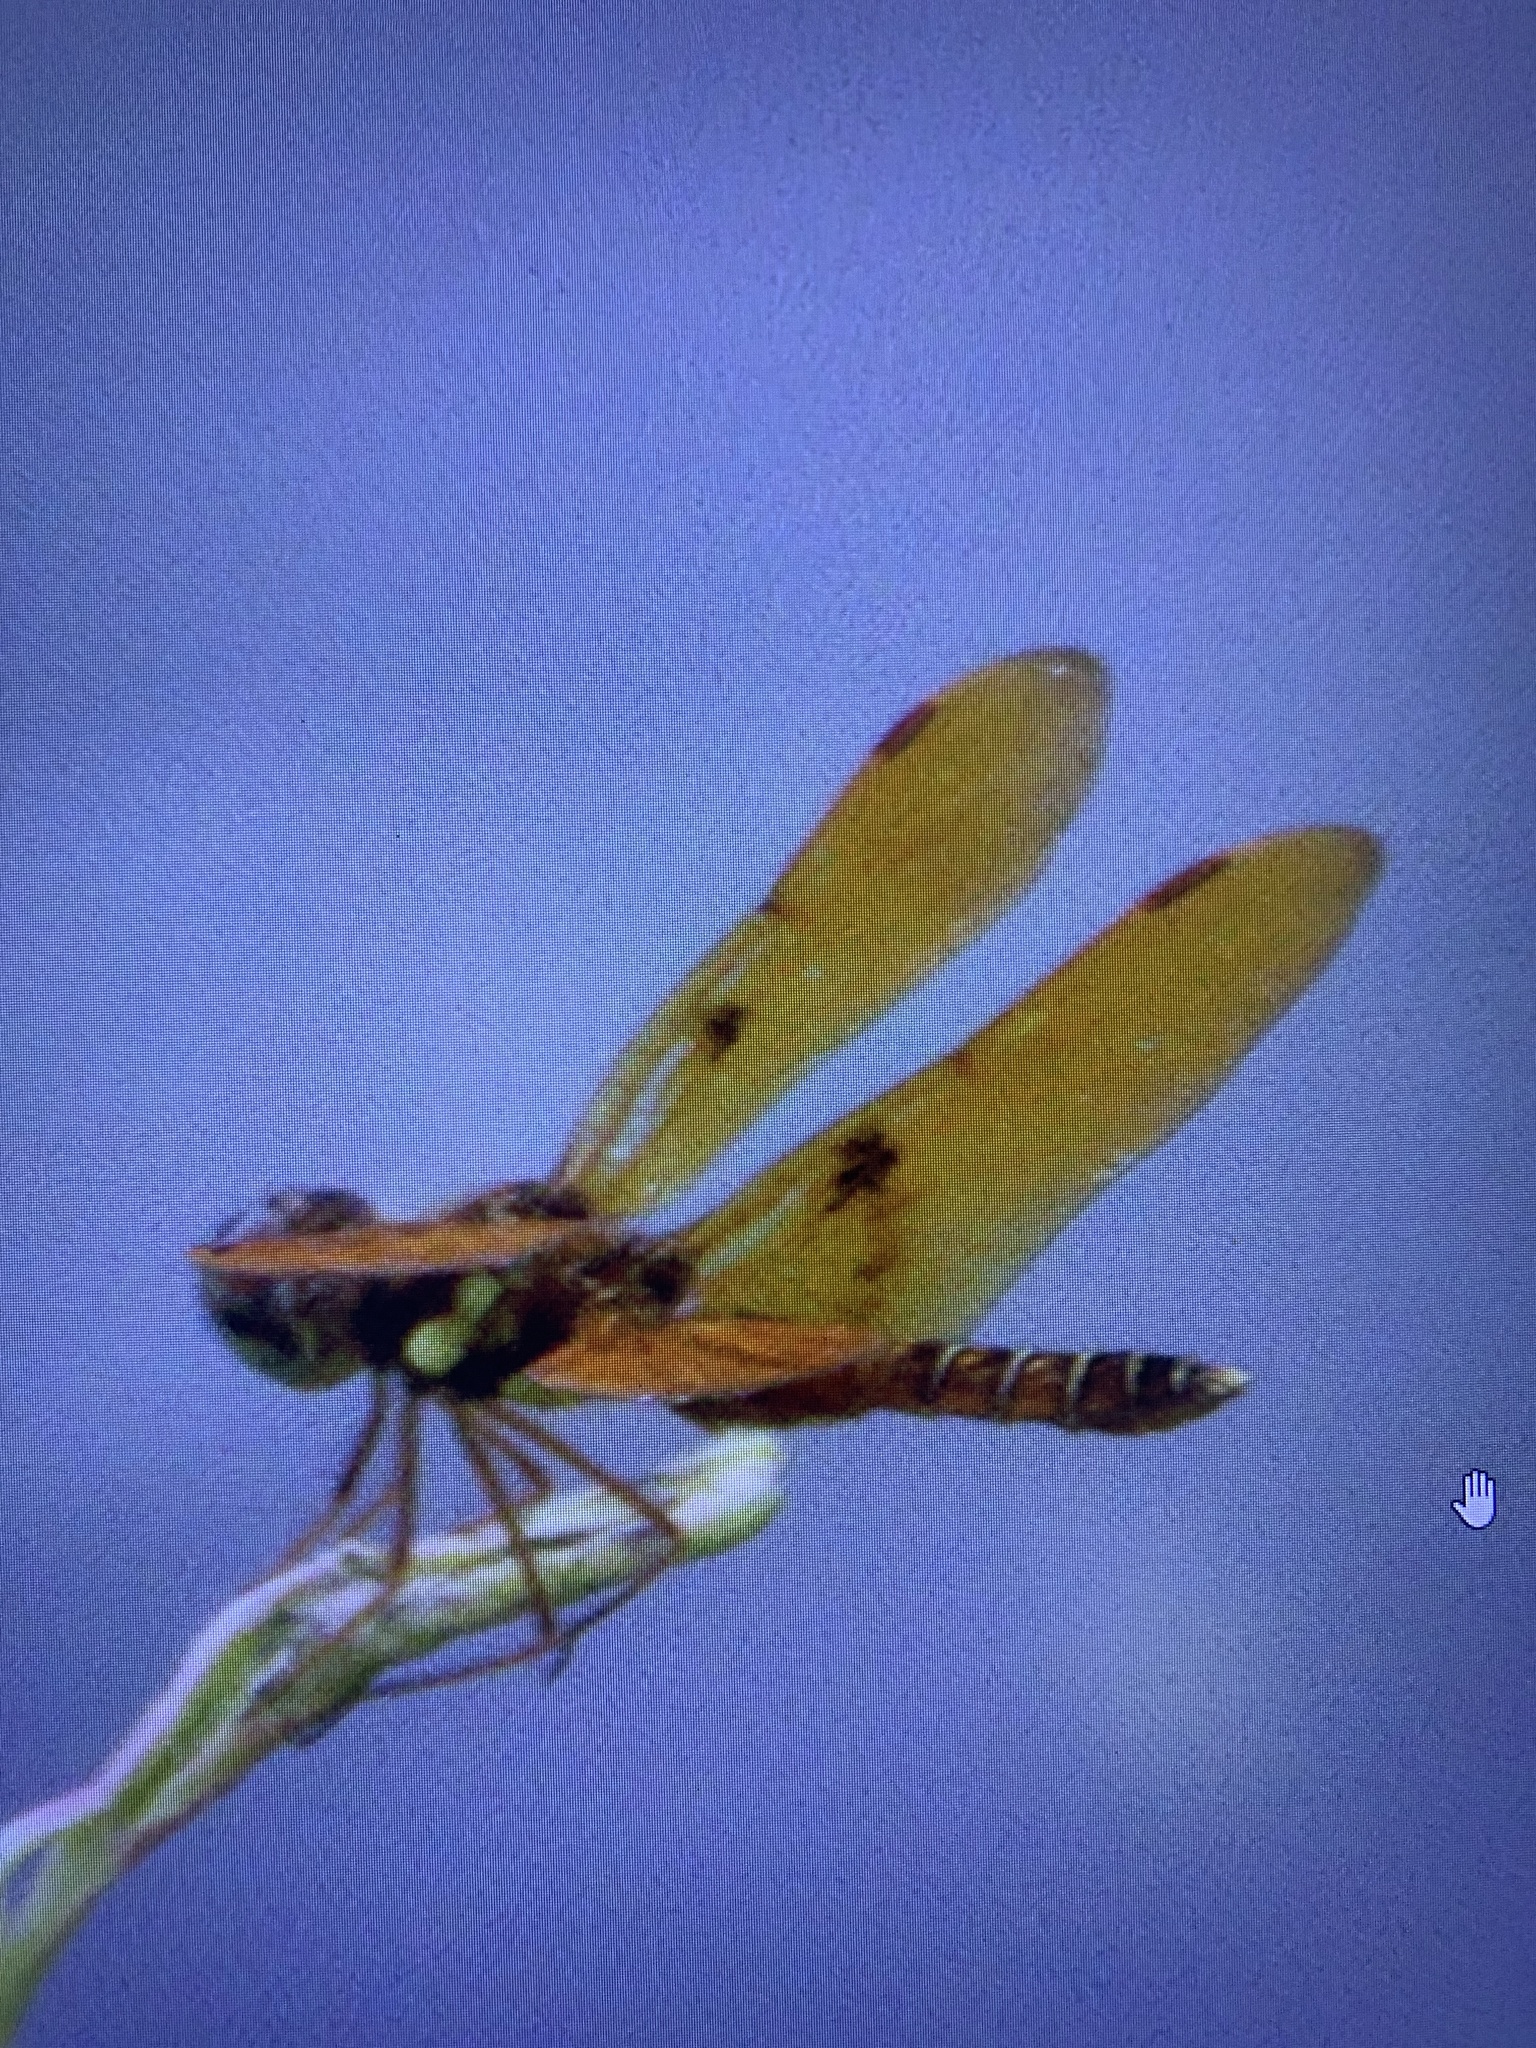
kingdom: Animalia
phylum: Arthropoda
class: Insecta
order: Odonata
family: Libellulidae
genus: Perithemis
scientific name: Perithemis tenera
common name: Eastern amberwing
